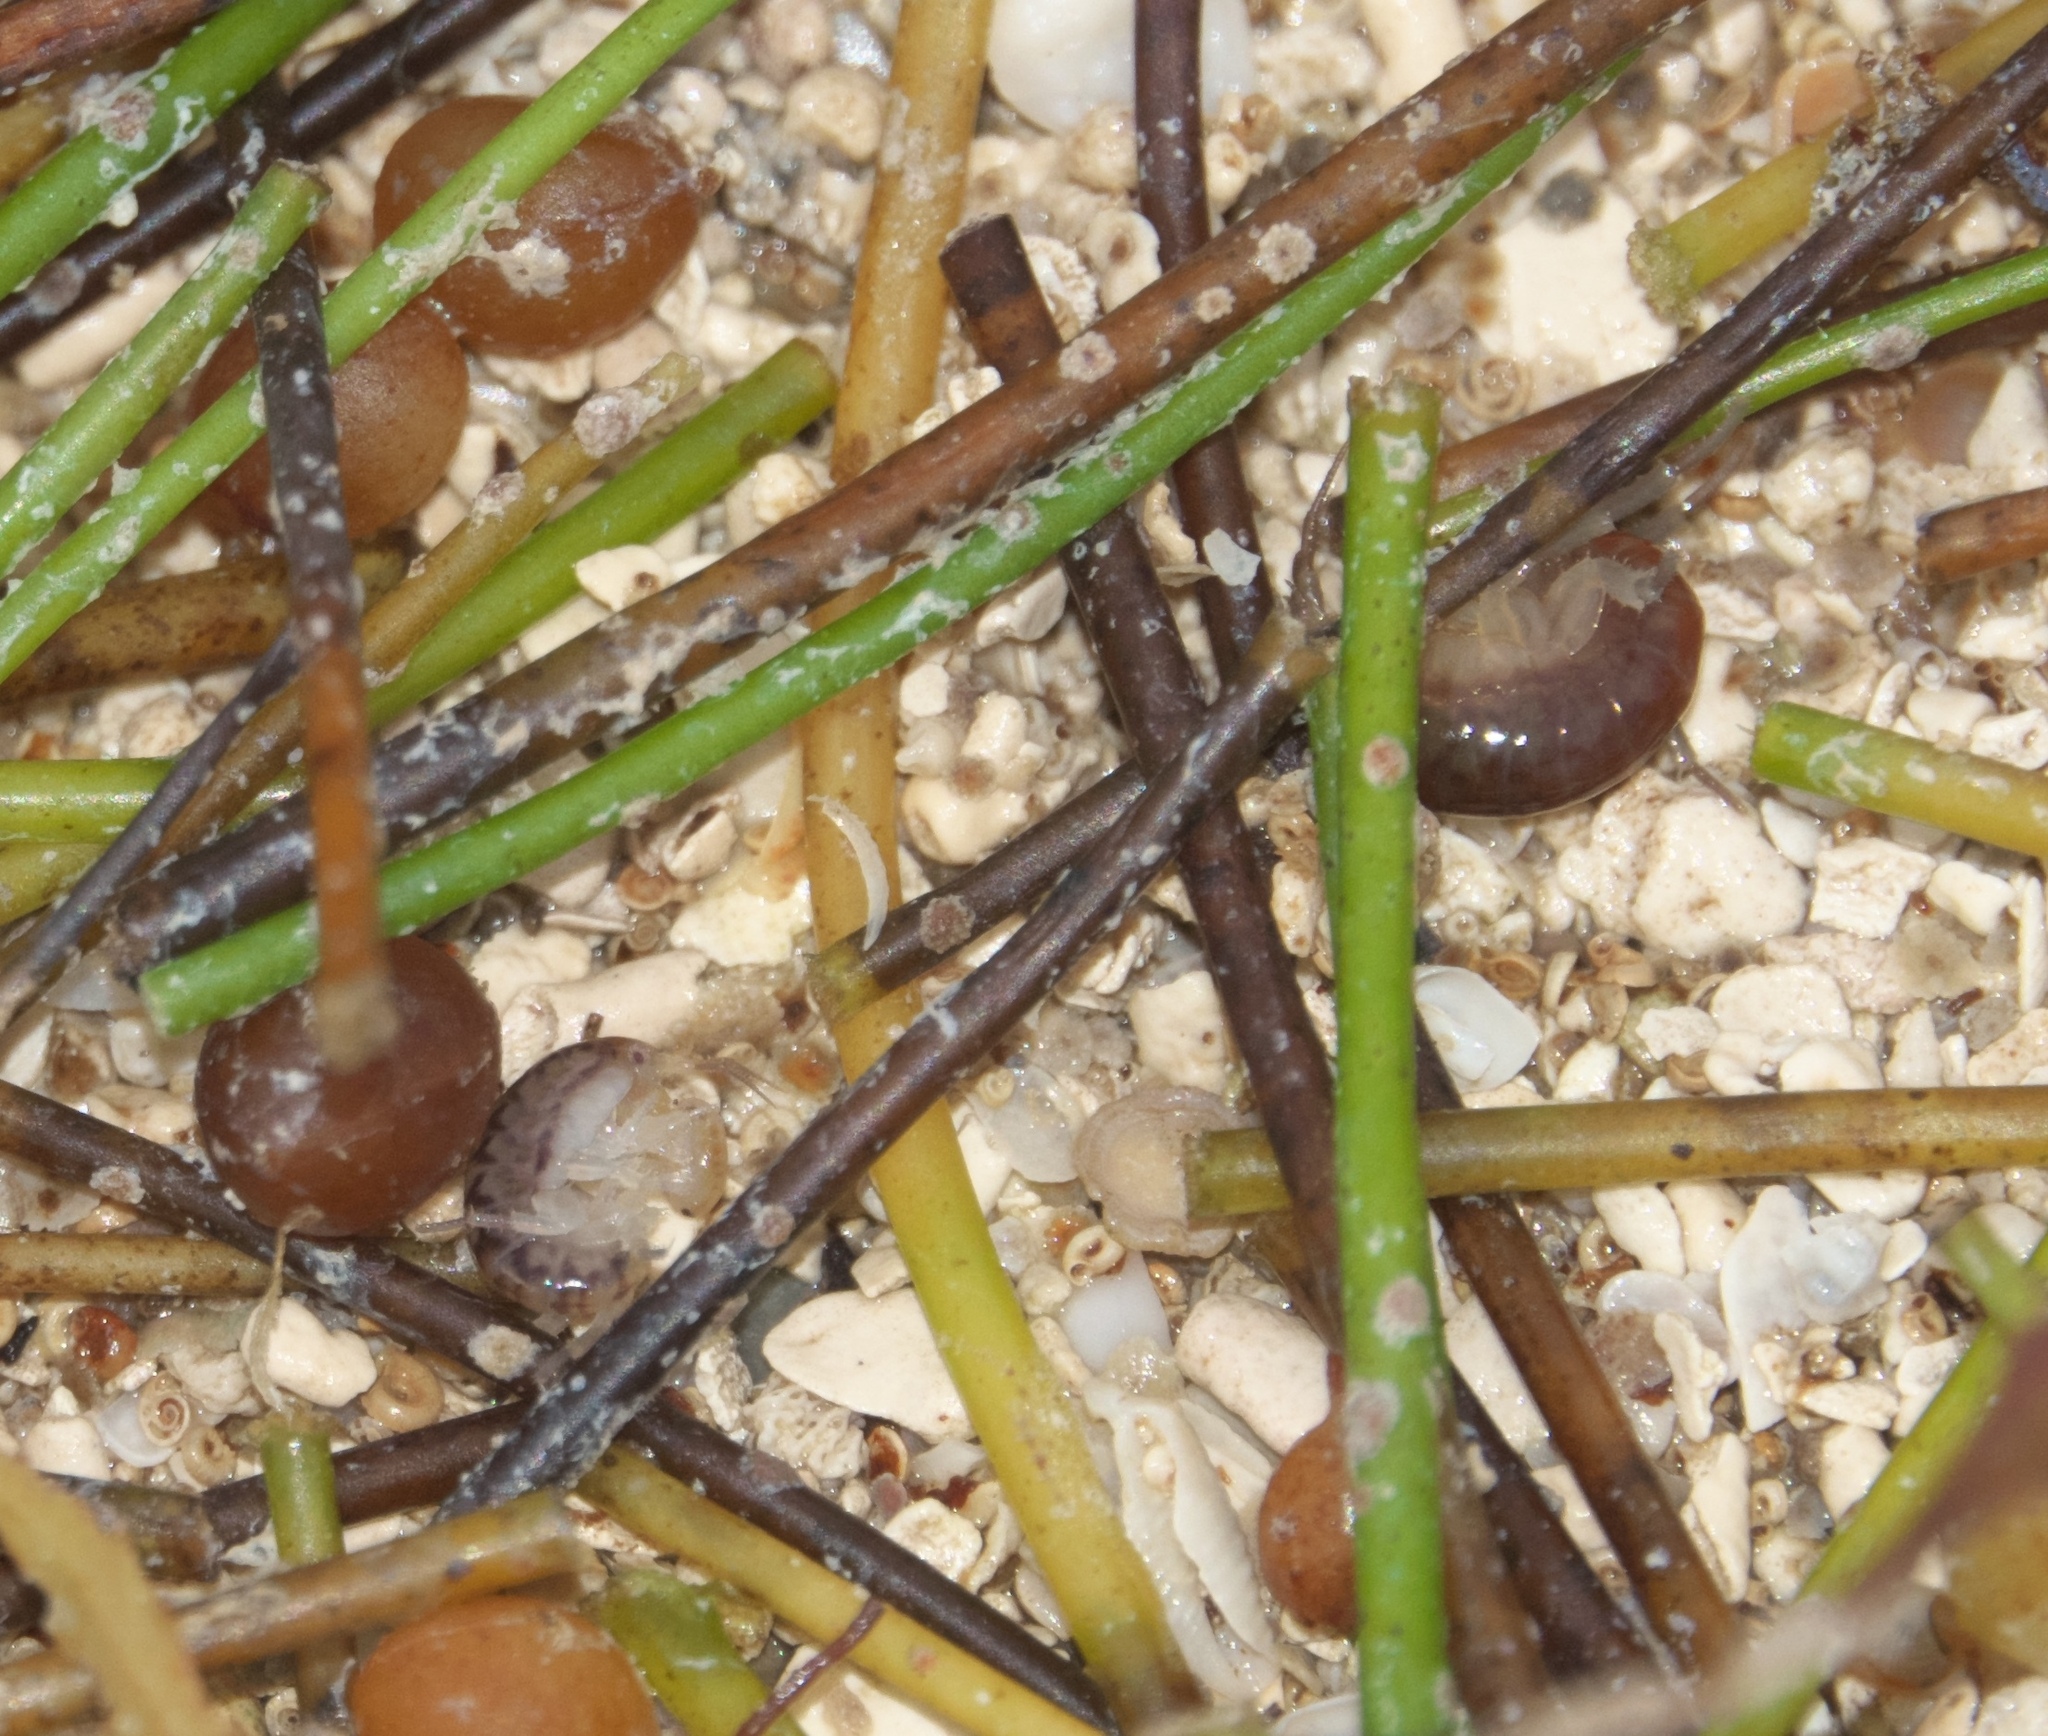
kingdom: Animalia
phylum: Arthropoda
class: Malacostraca
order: Amphipoda
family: Talitridae
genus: Mexorchestia
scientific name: Mexorchestia carpenteri
